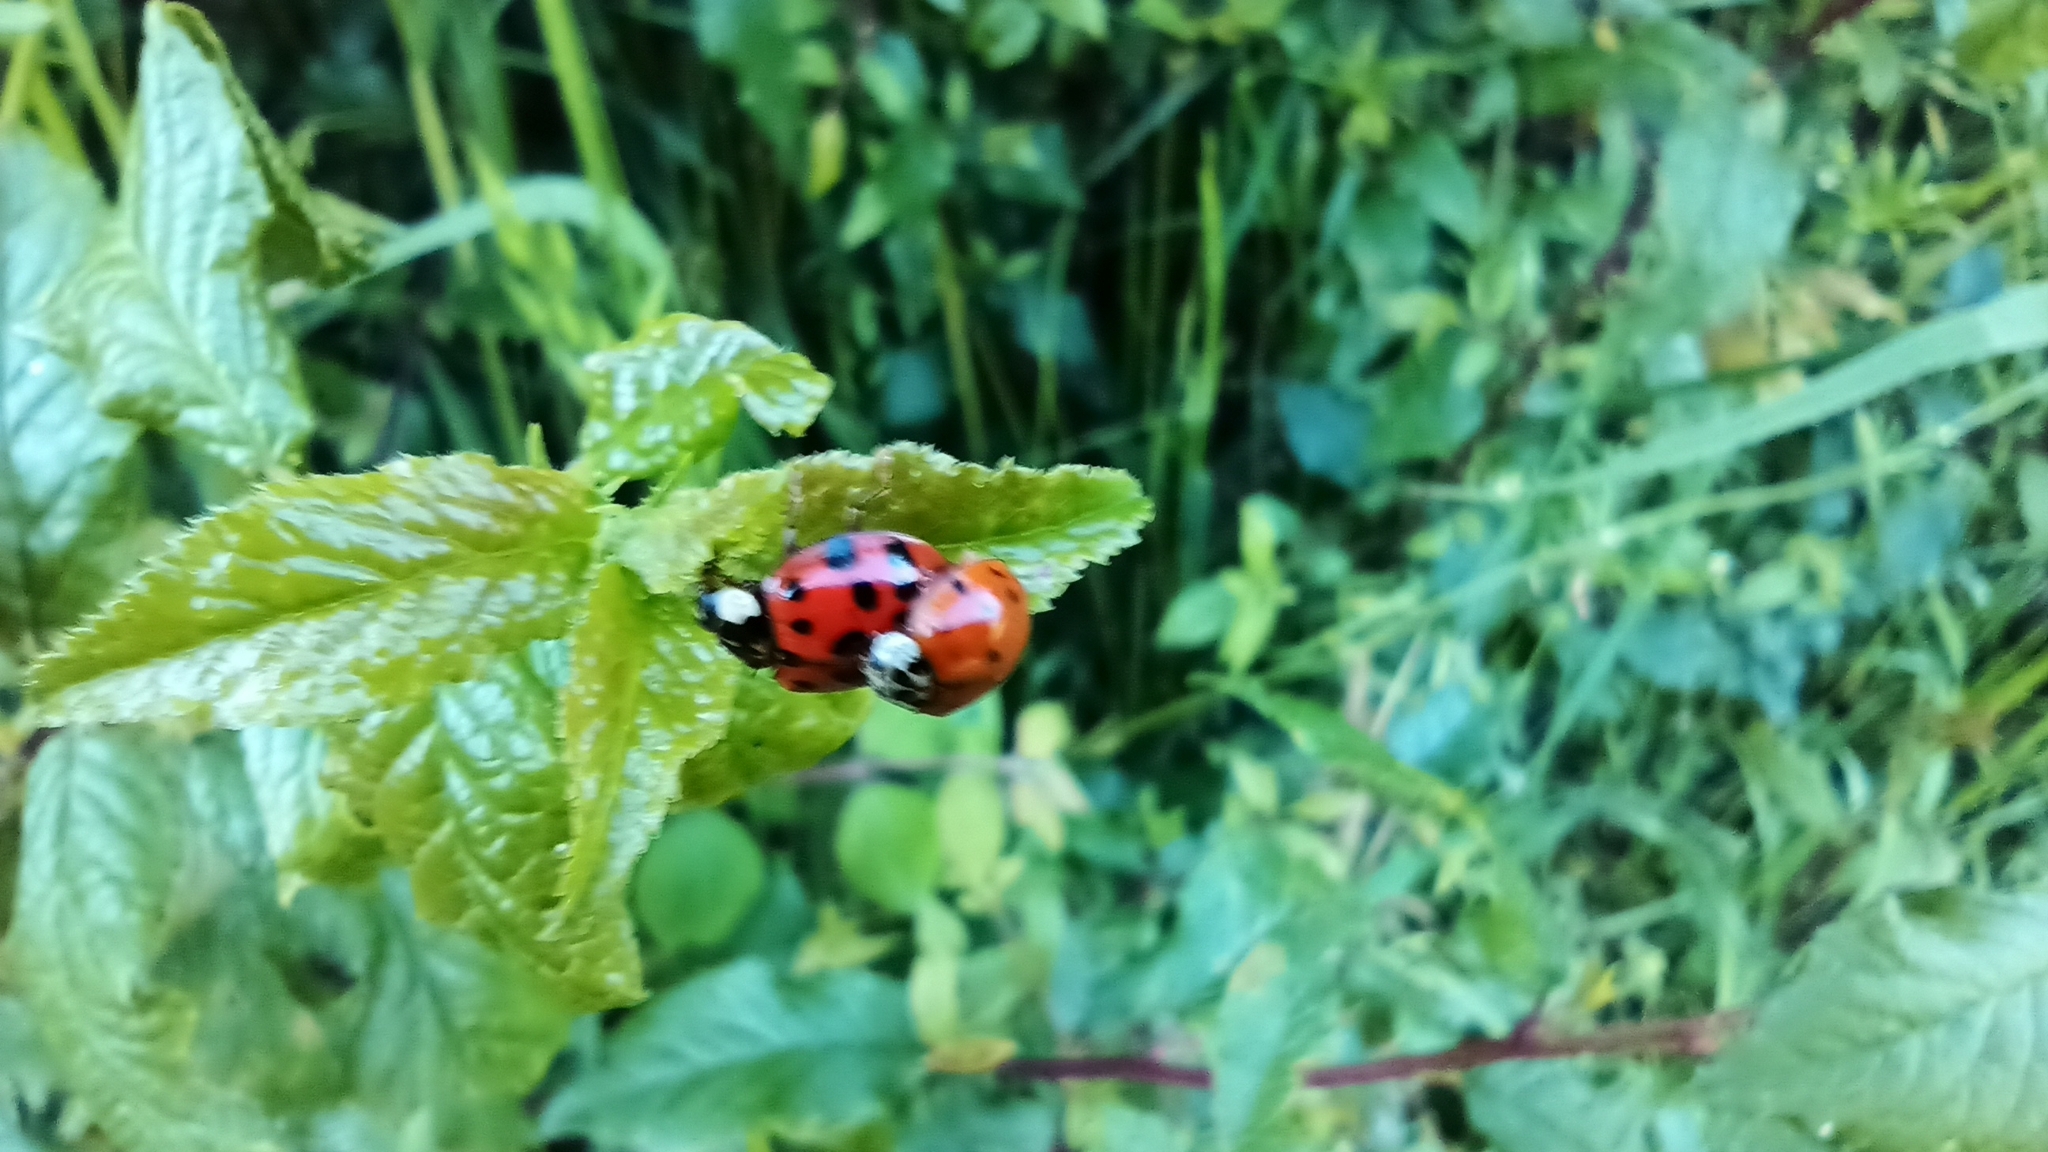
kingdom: Animalia
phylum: Arthropoda
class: Insecta
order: Coleoptera
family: Coccinellidae
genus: Harmonia
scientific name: Harmonia axyridis
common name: Harlequin ladybird
